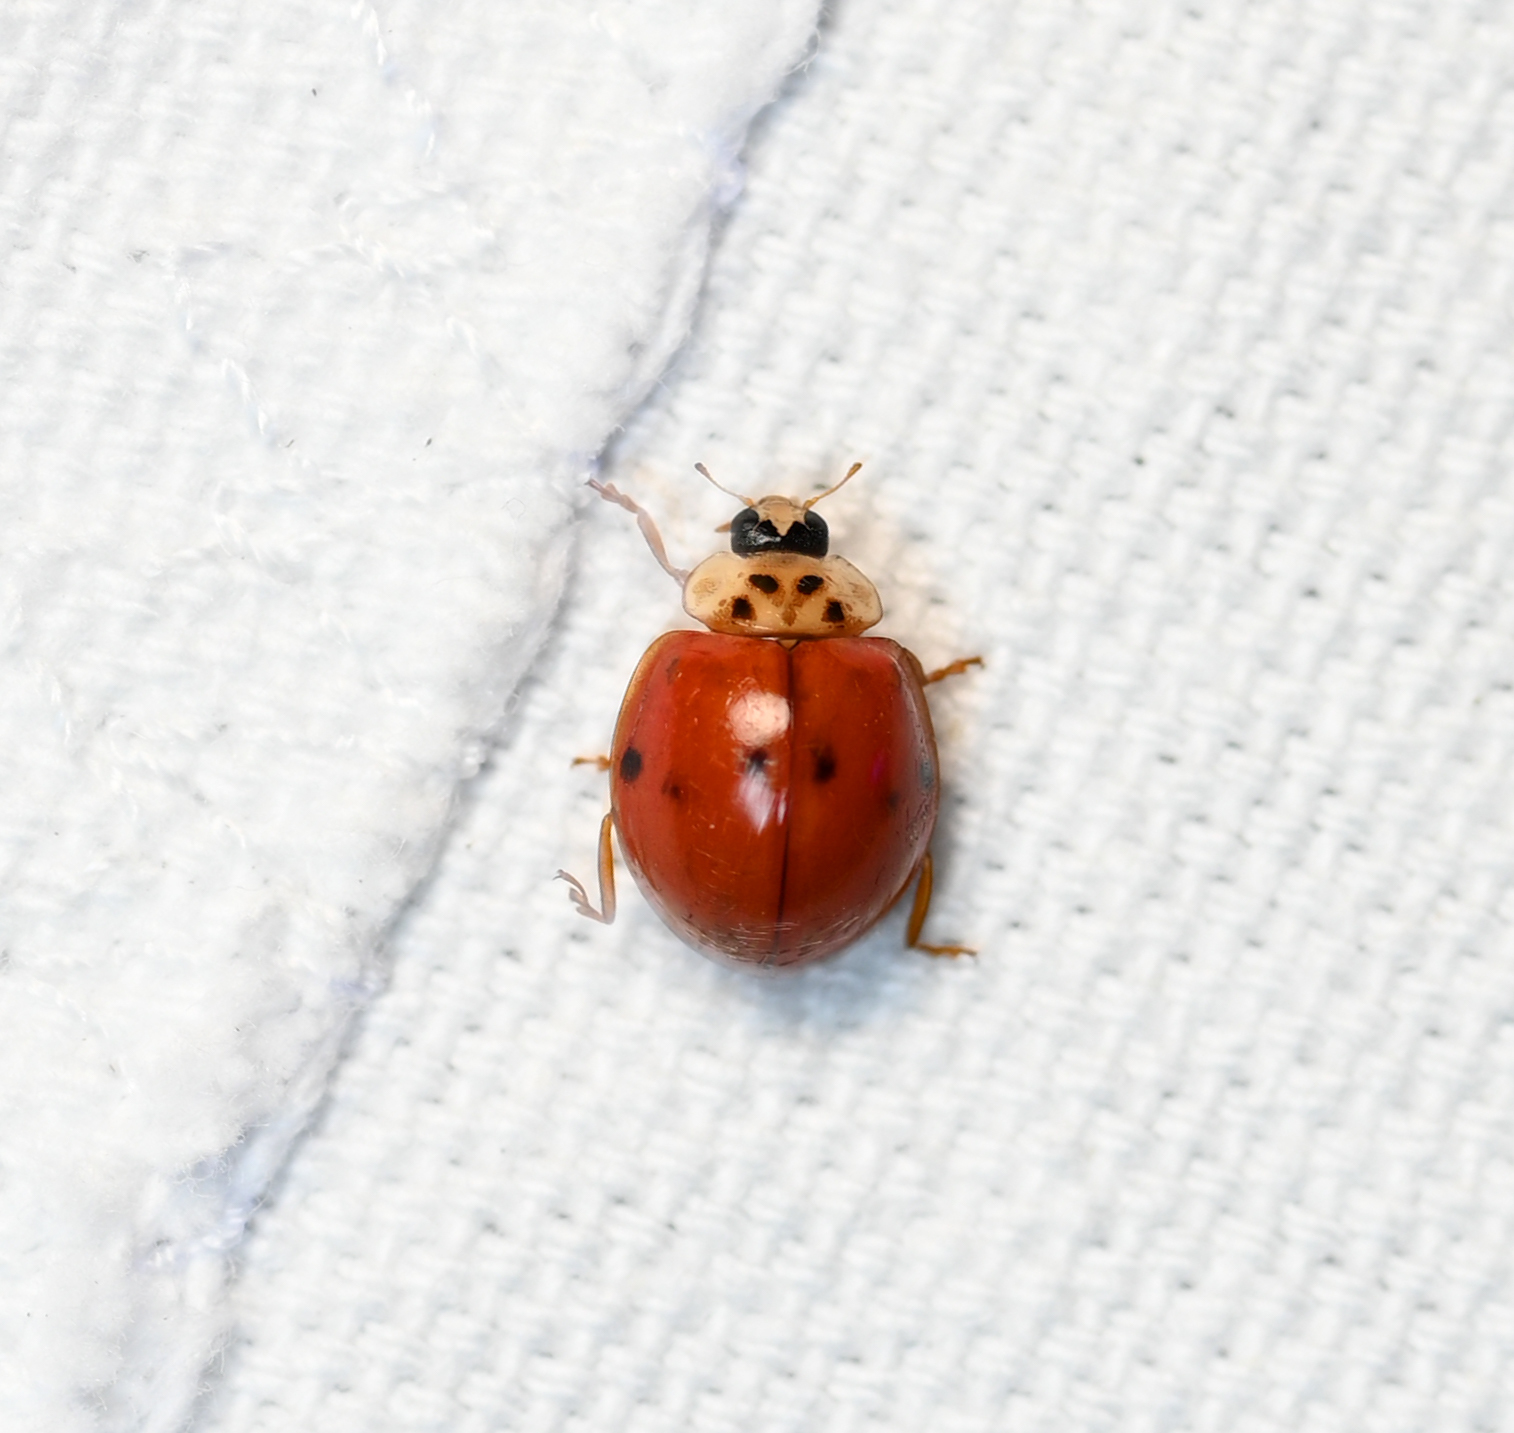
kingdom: Animalia
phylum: Arthropoda
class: Insecta
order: Coleoptera
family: Coccinellidae
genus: Harmonia
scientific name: Harmonia axyridis
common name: Harlequin ladybird
